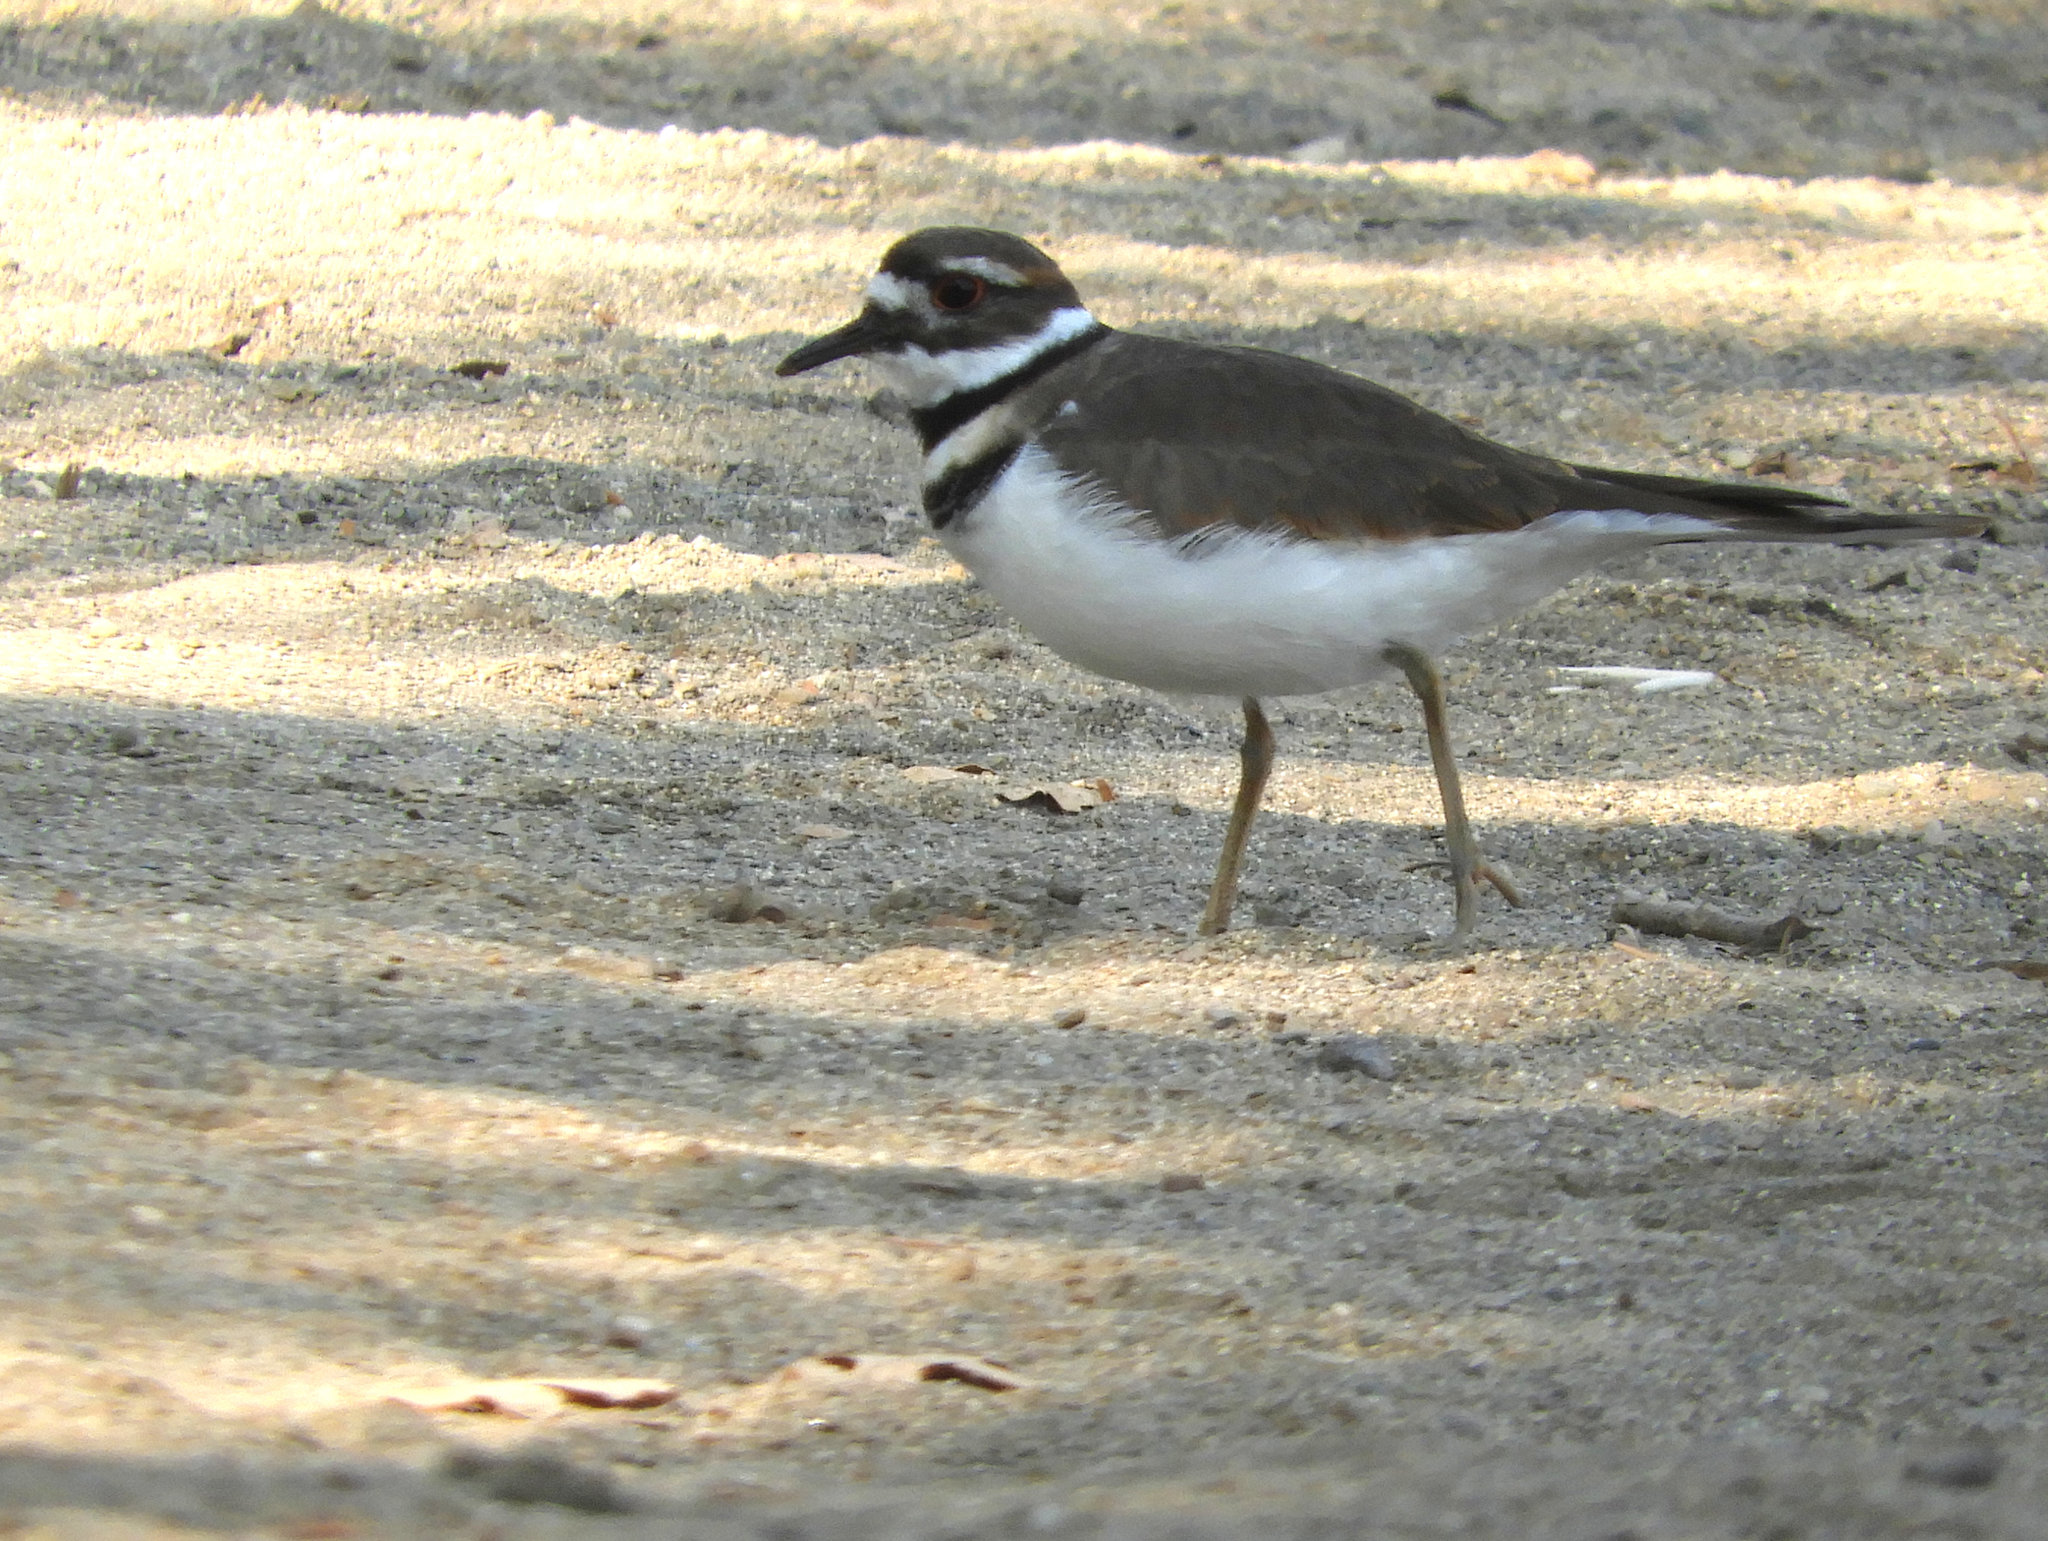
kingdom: Animalia
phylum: Chordata
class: Aves
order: Charadriiformes
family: Charadriidae
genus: Charadrius
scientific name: Charadrius vociferus
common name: Killdeer
